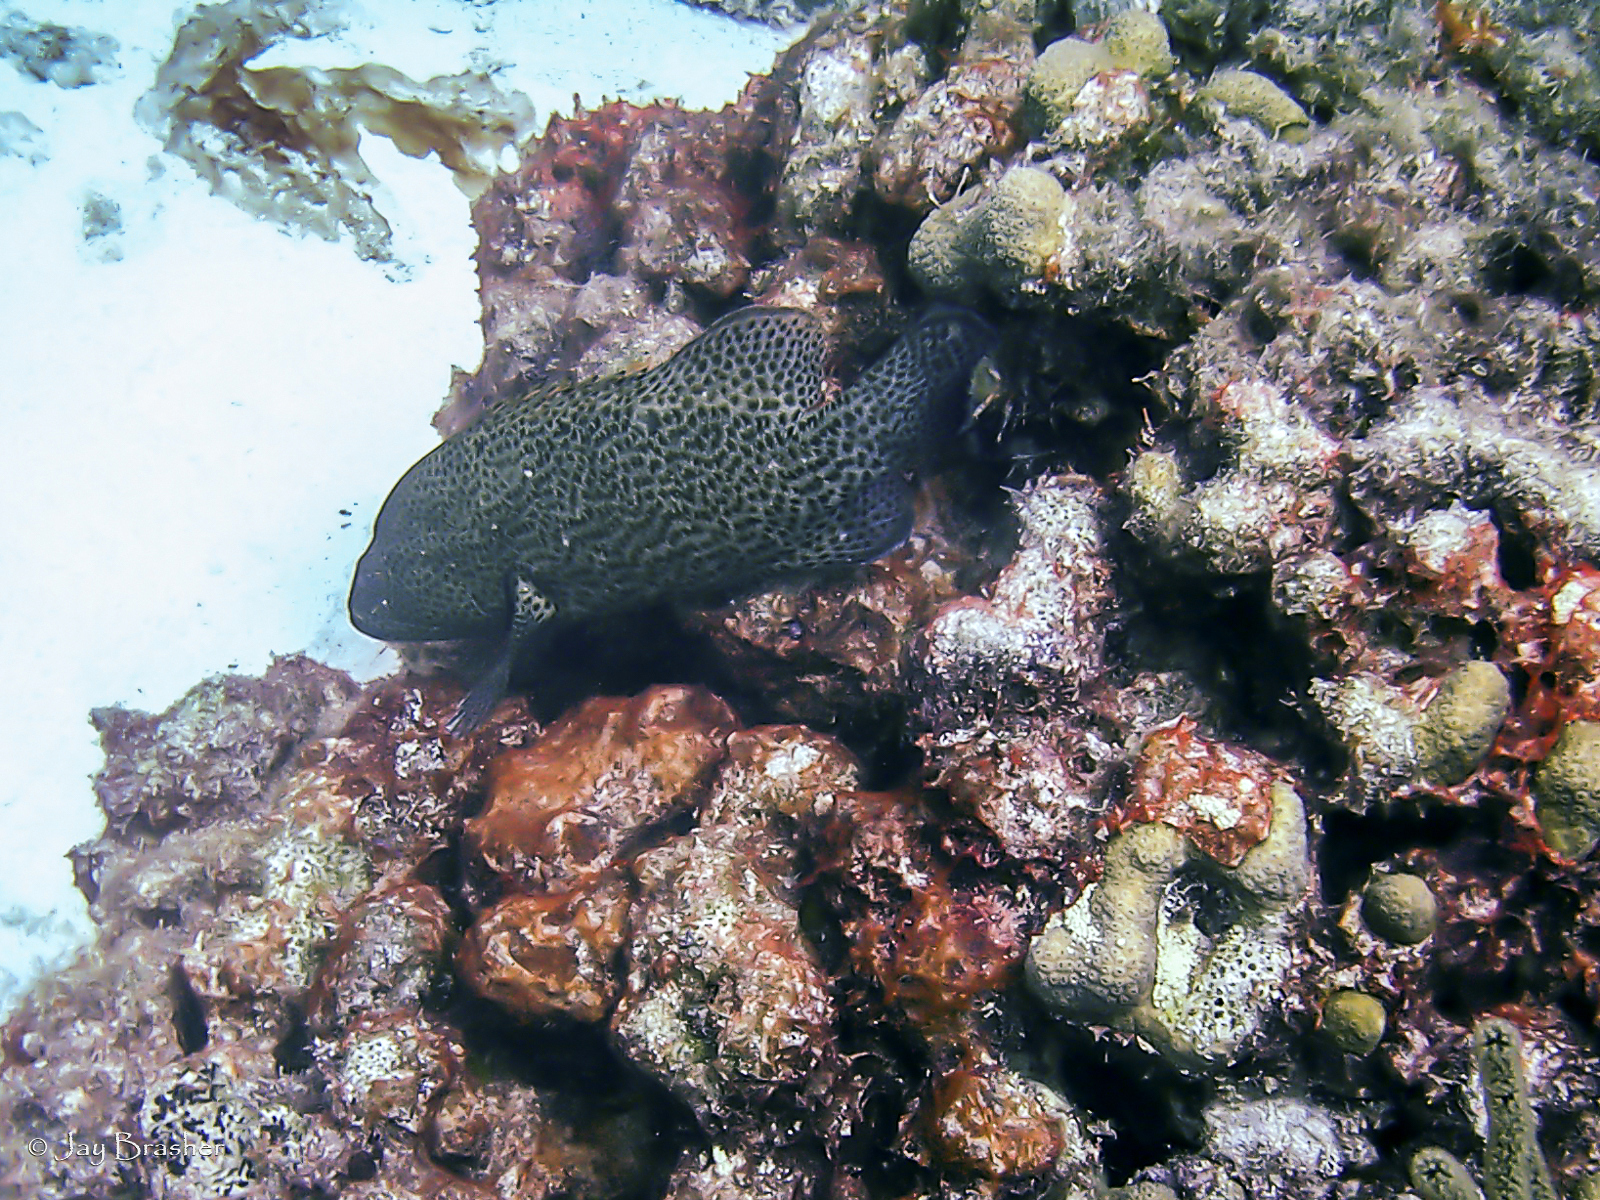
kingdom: Animalia
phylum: Chordata
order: Perciformes
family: Serranidae
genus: Cephalopholis
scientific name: Cephalopholis cruentata
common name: Graysby
